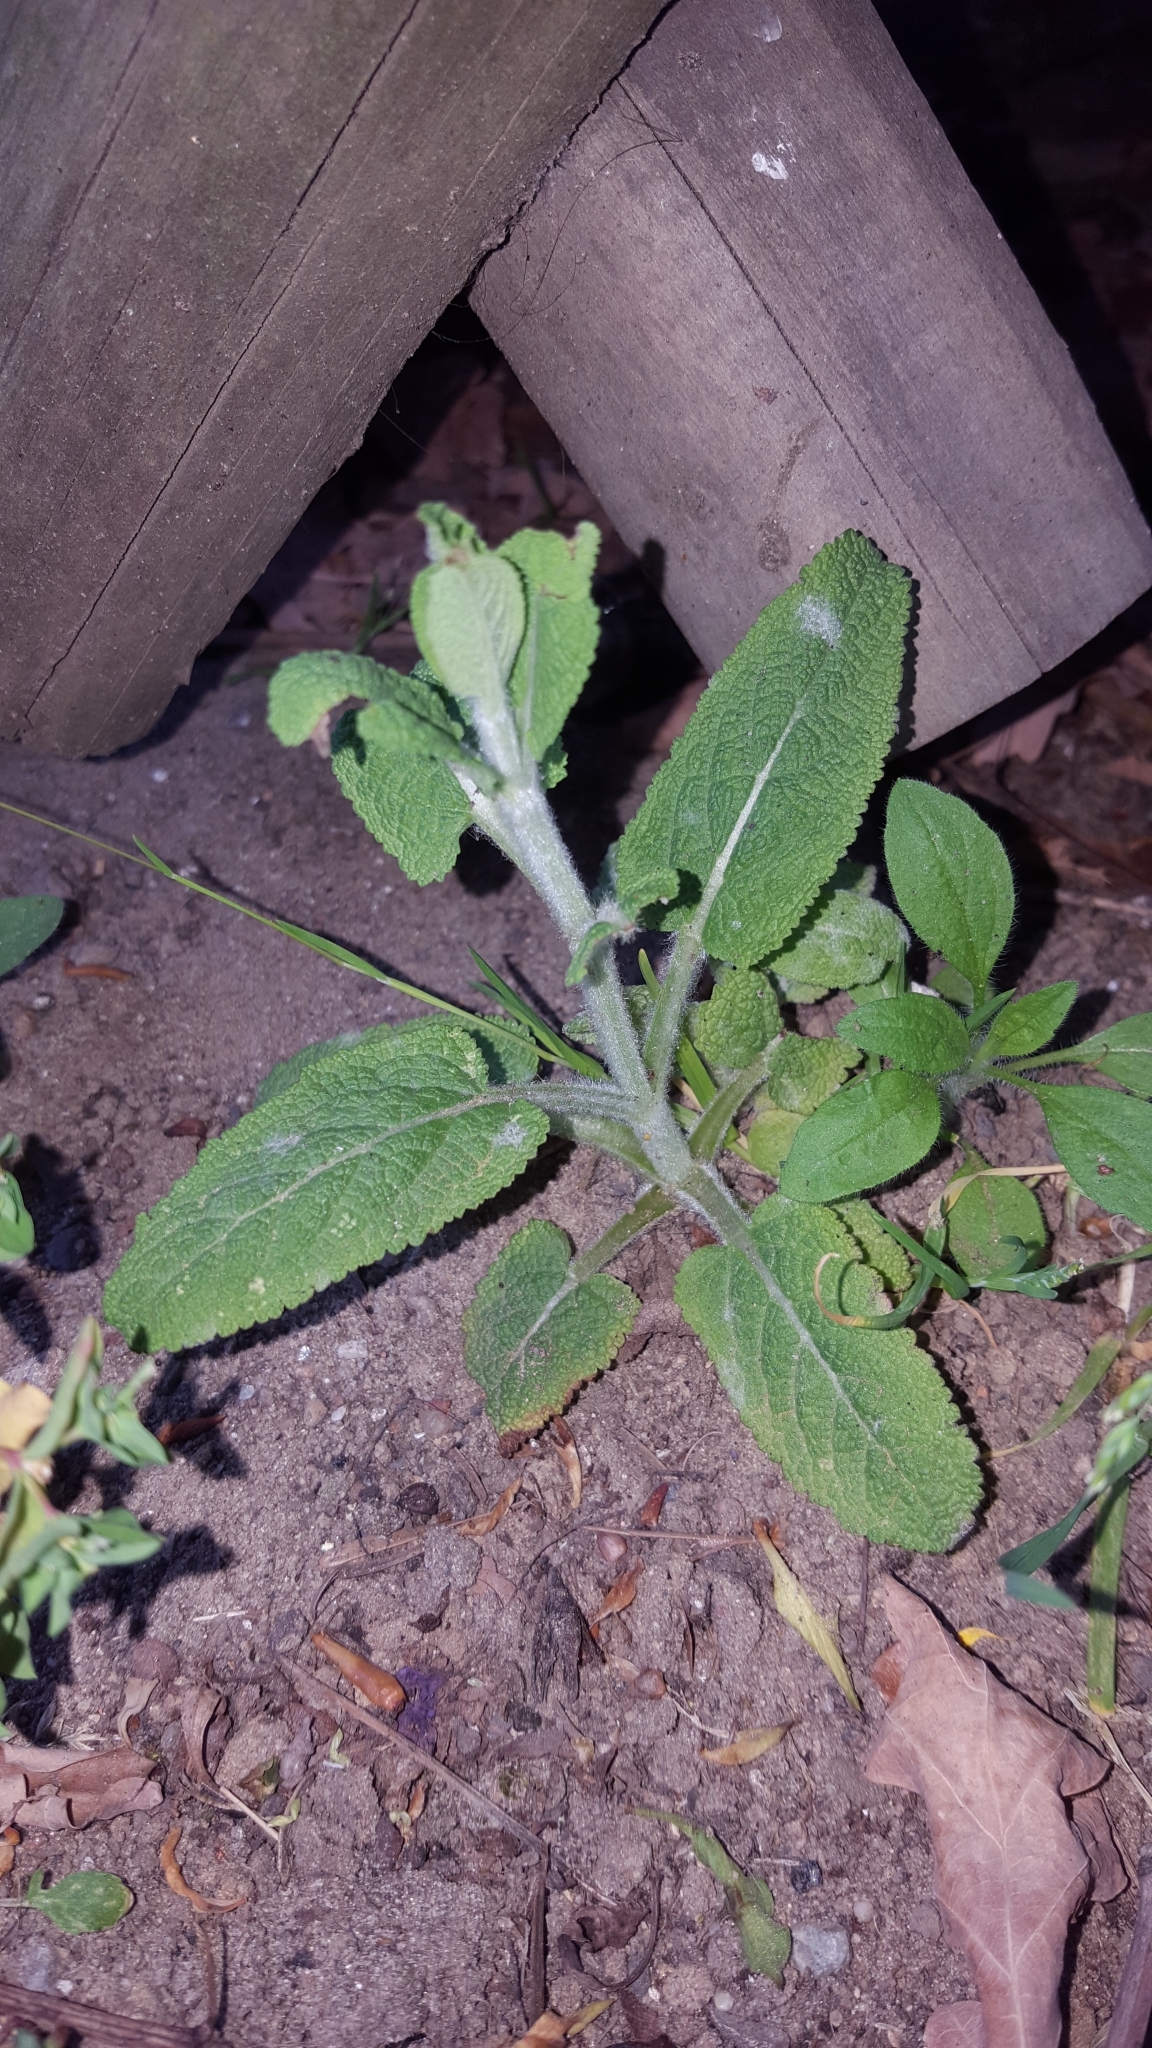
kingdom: Plantae
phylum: Tracheophyta
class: Magnoliopsida
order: Lamiales
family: Lamiaceae
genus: Salvia
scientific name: Salvia officinalis
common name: Sage
